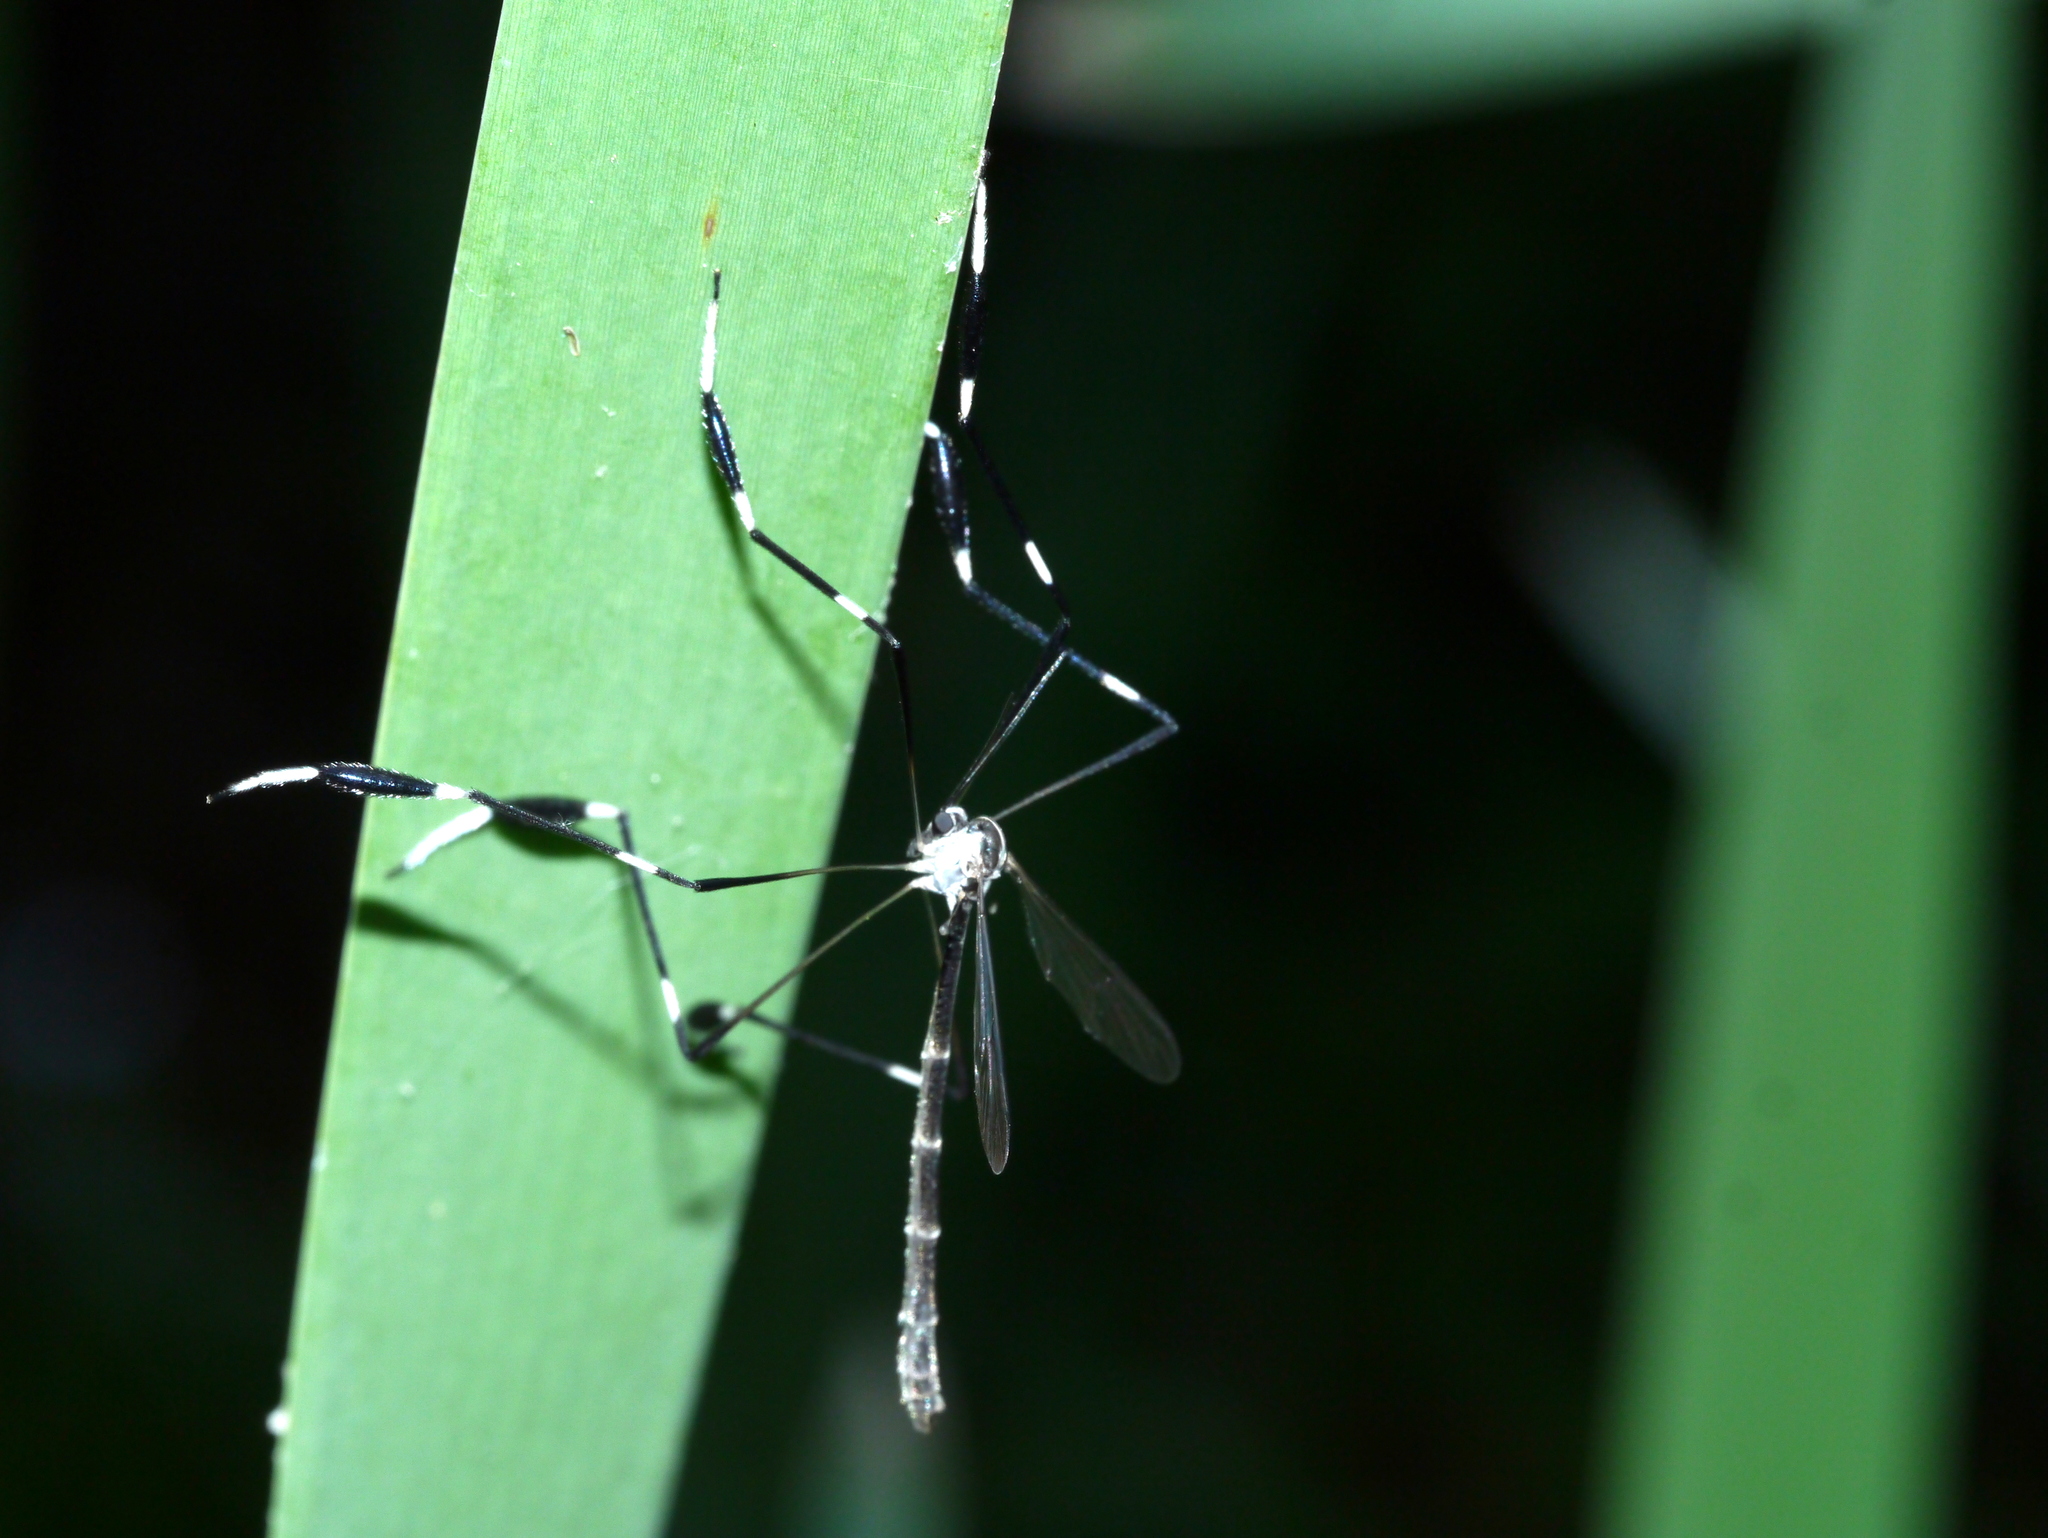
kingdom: Animalia
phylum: Arthropoda
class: Insecta
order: Diptera
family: Ptychopteridae
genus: Bittacomorpha
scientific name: Bittacomorpha clavipes
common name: Eastern phantom crane fly
